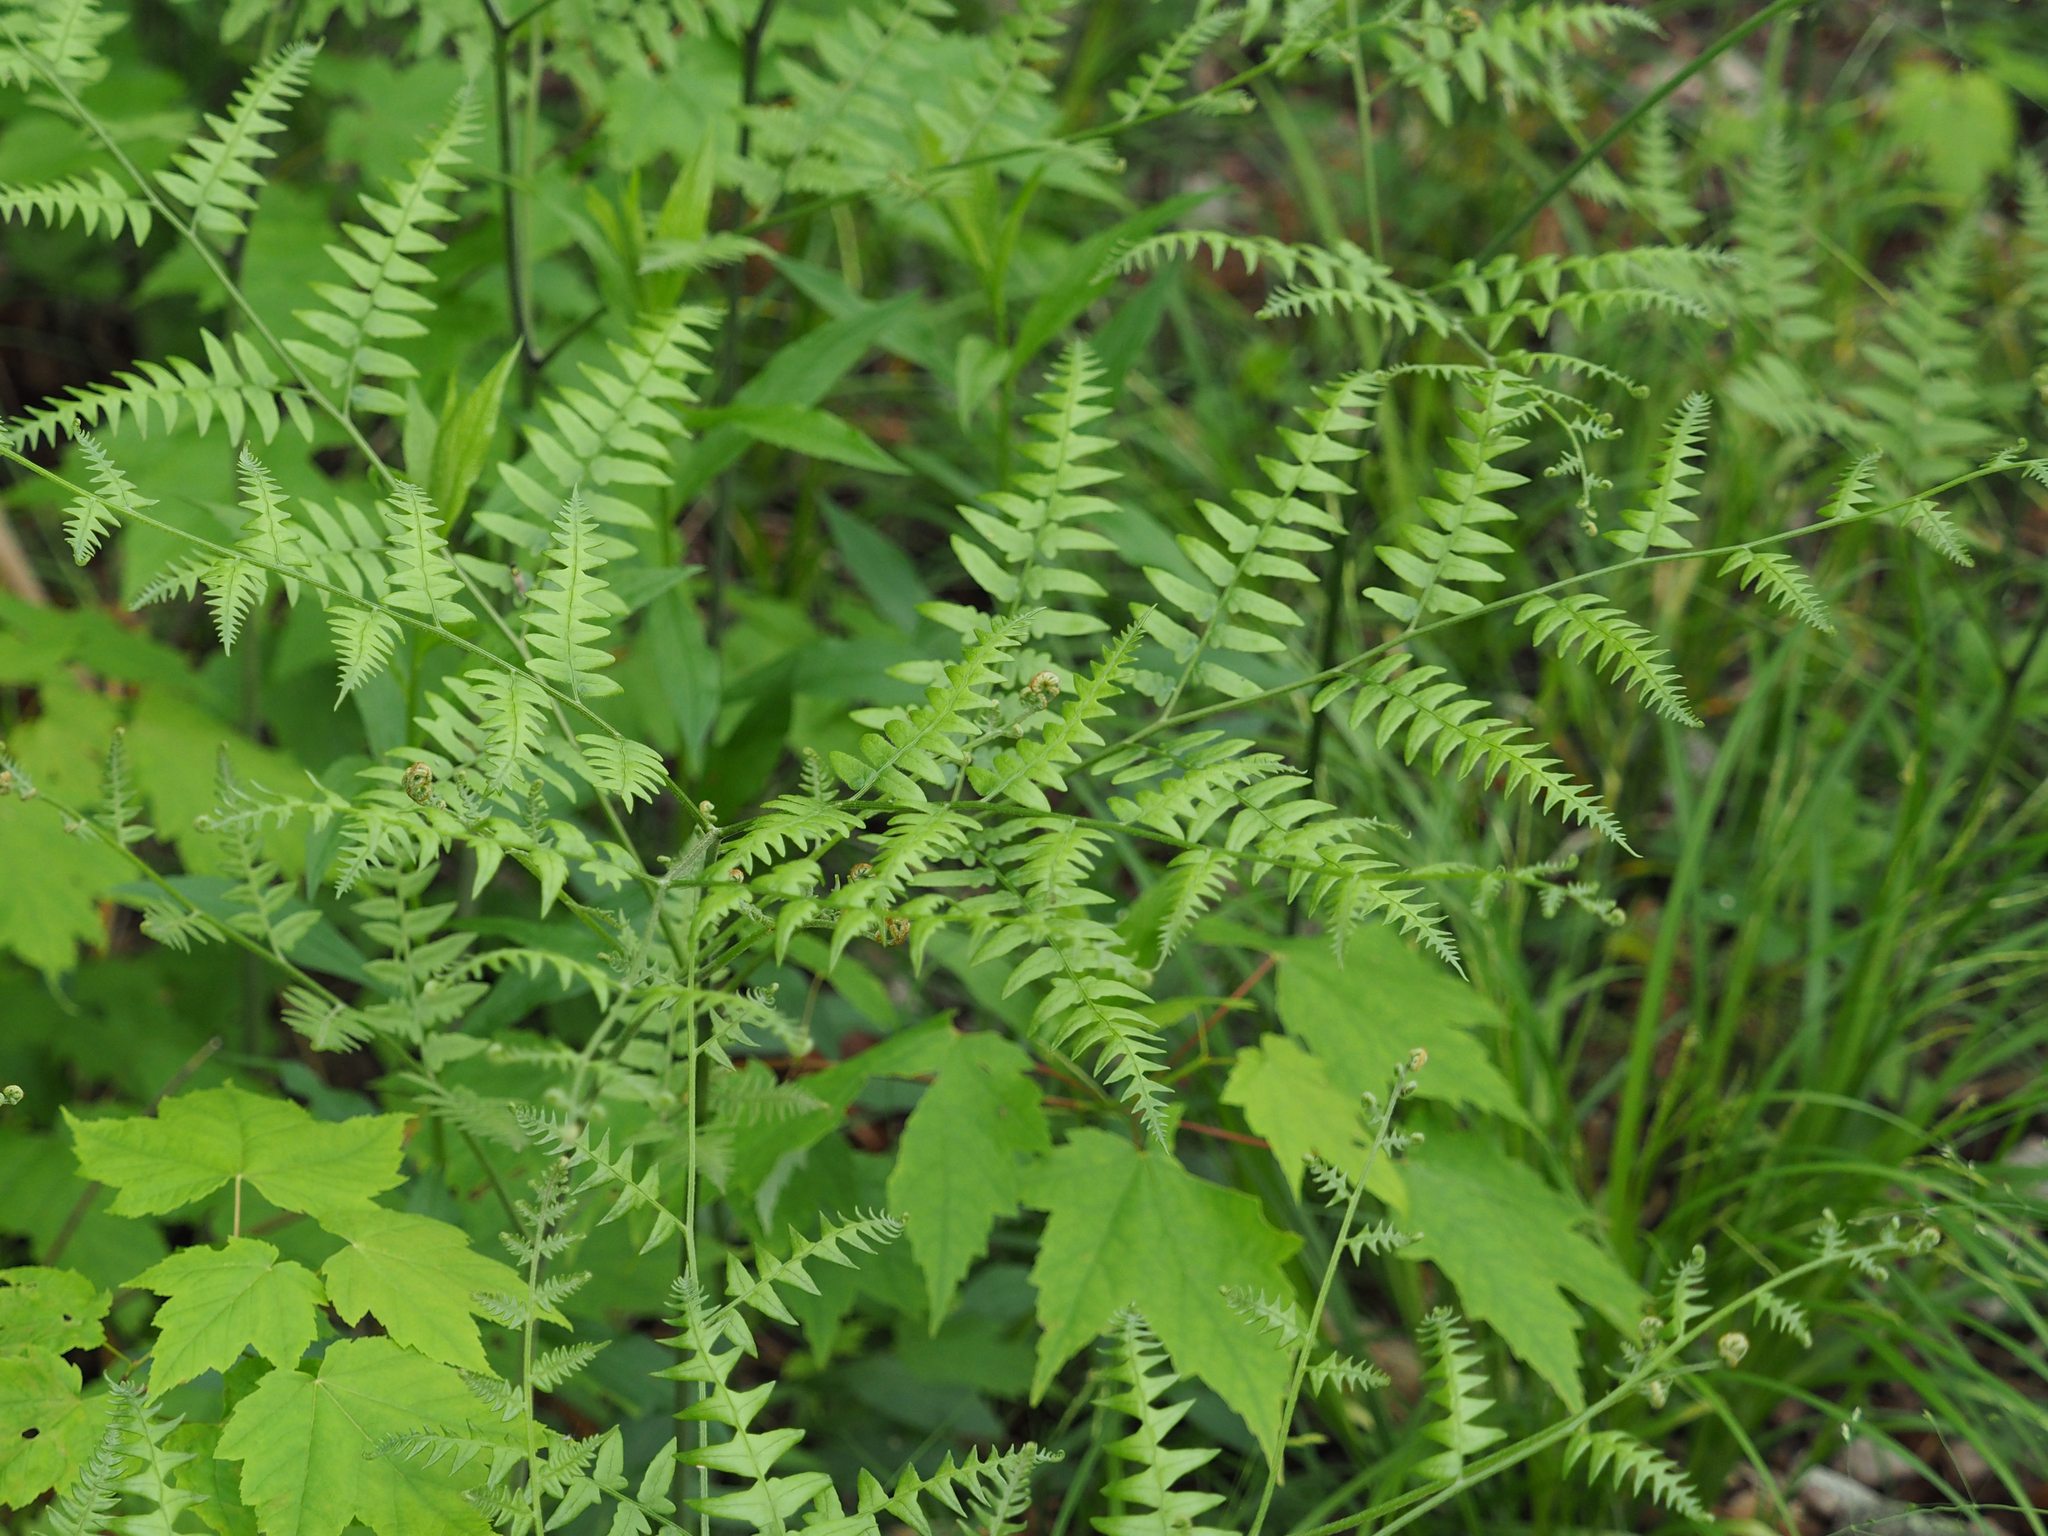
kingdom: Plantae
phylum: Tracheophyta
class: Polypodiopsida
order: Polypodiales
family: Dennstaedtiaceae
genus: Pteridium
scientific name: Pteridium aquilinum
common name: Bracken
